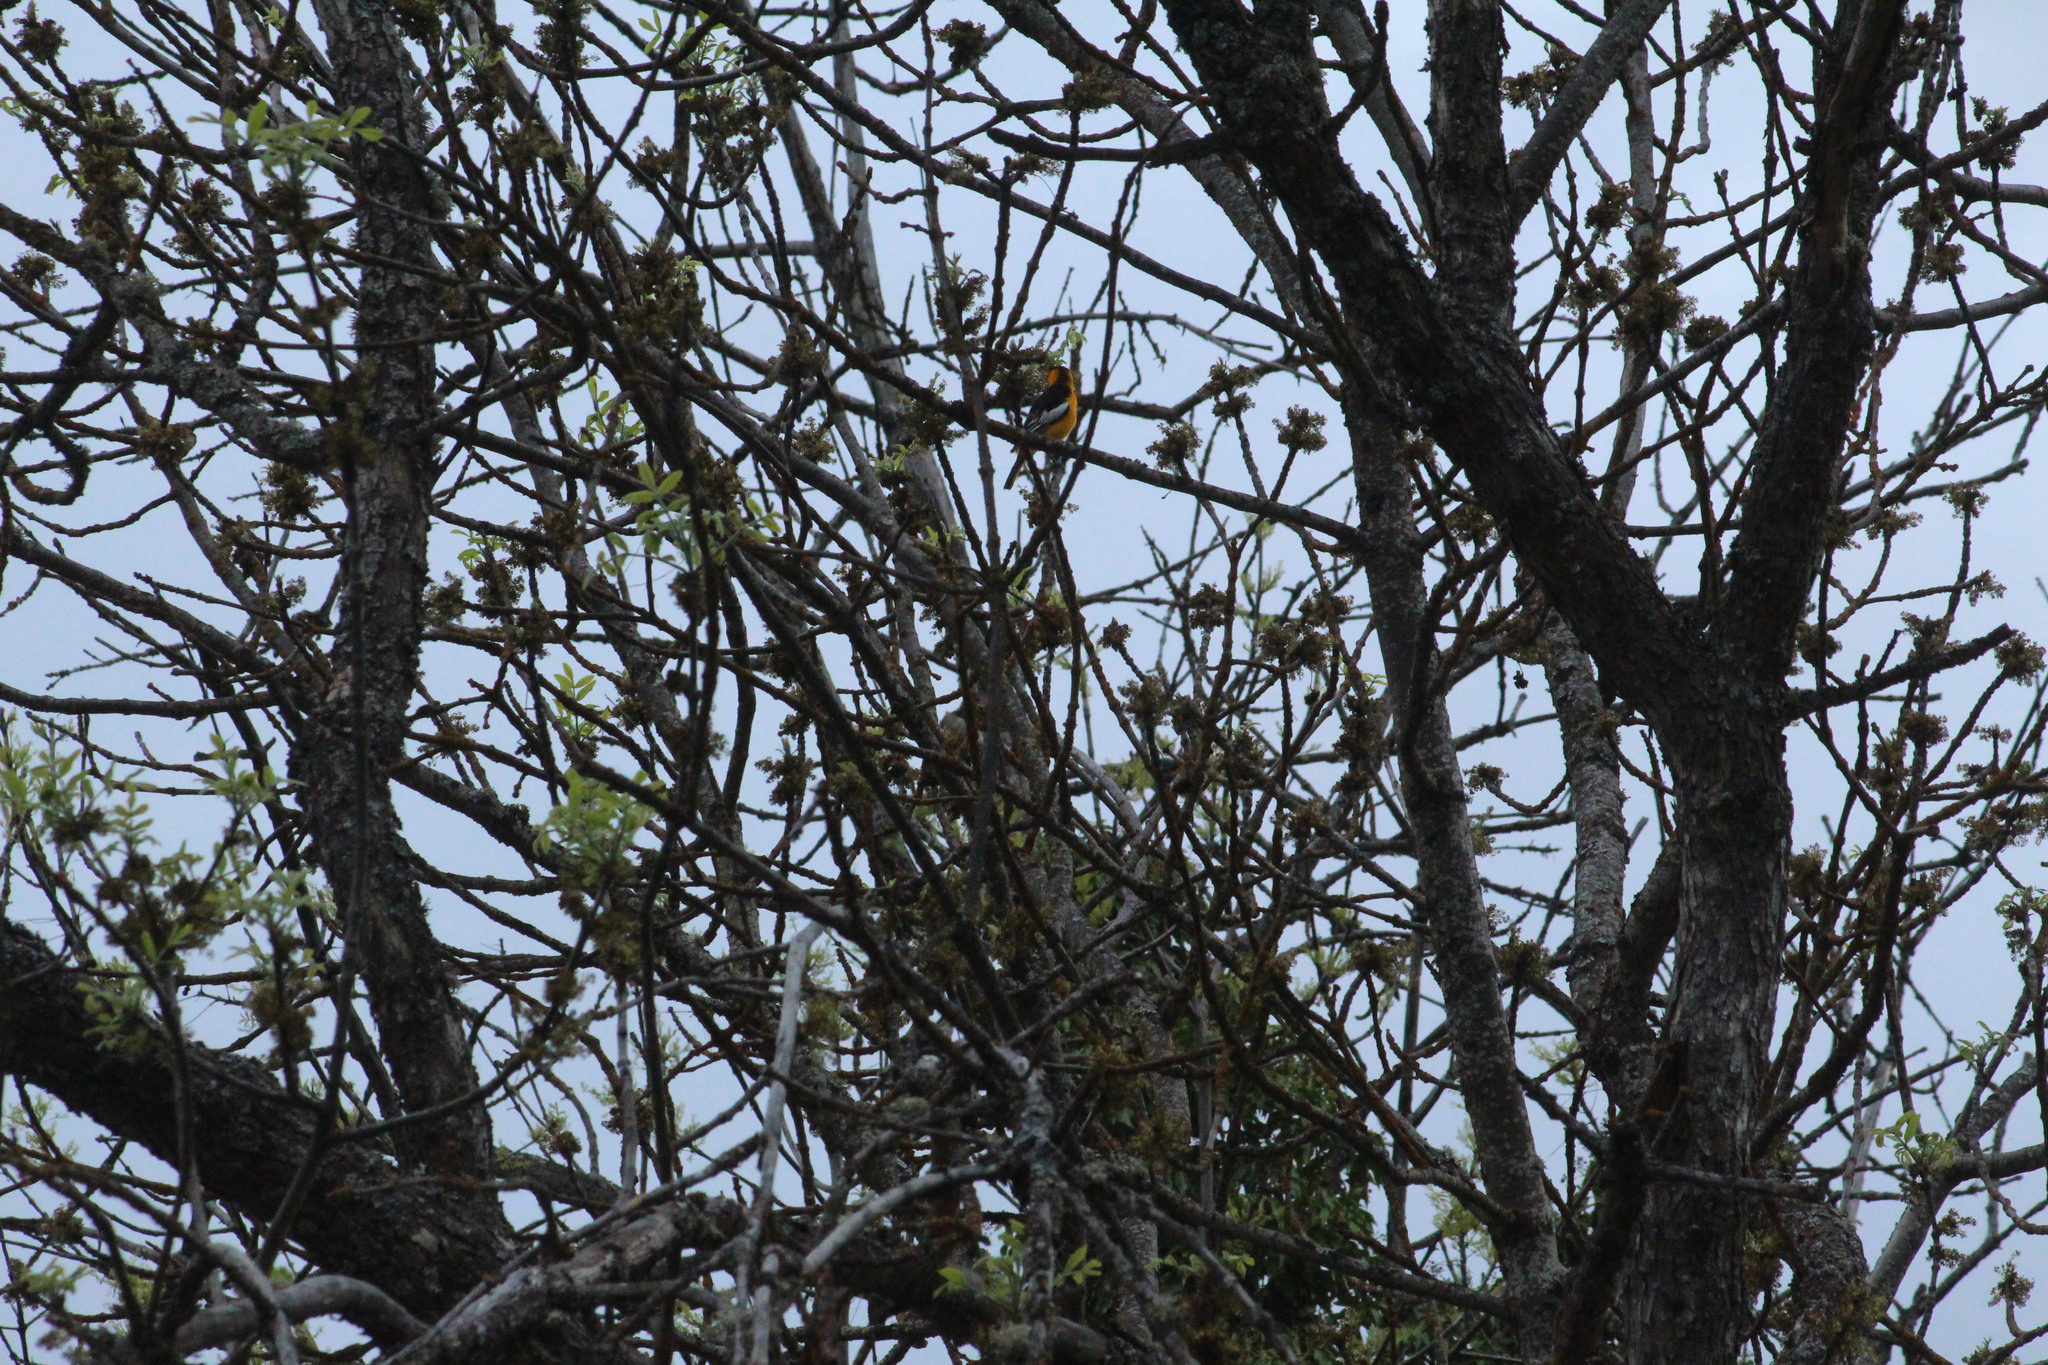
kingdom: Animalia
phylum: Chordata
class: Aves
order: Passeriformes
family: Icteridae
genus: Icterus
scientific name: Icterus bullockii
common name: Bullock's oriole
